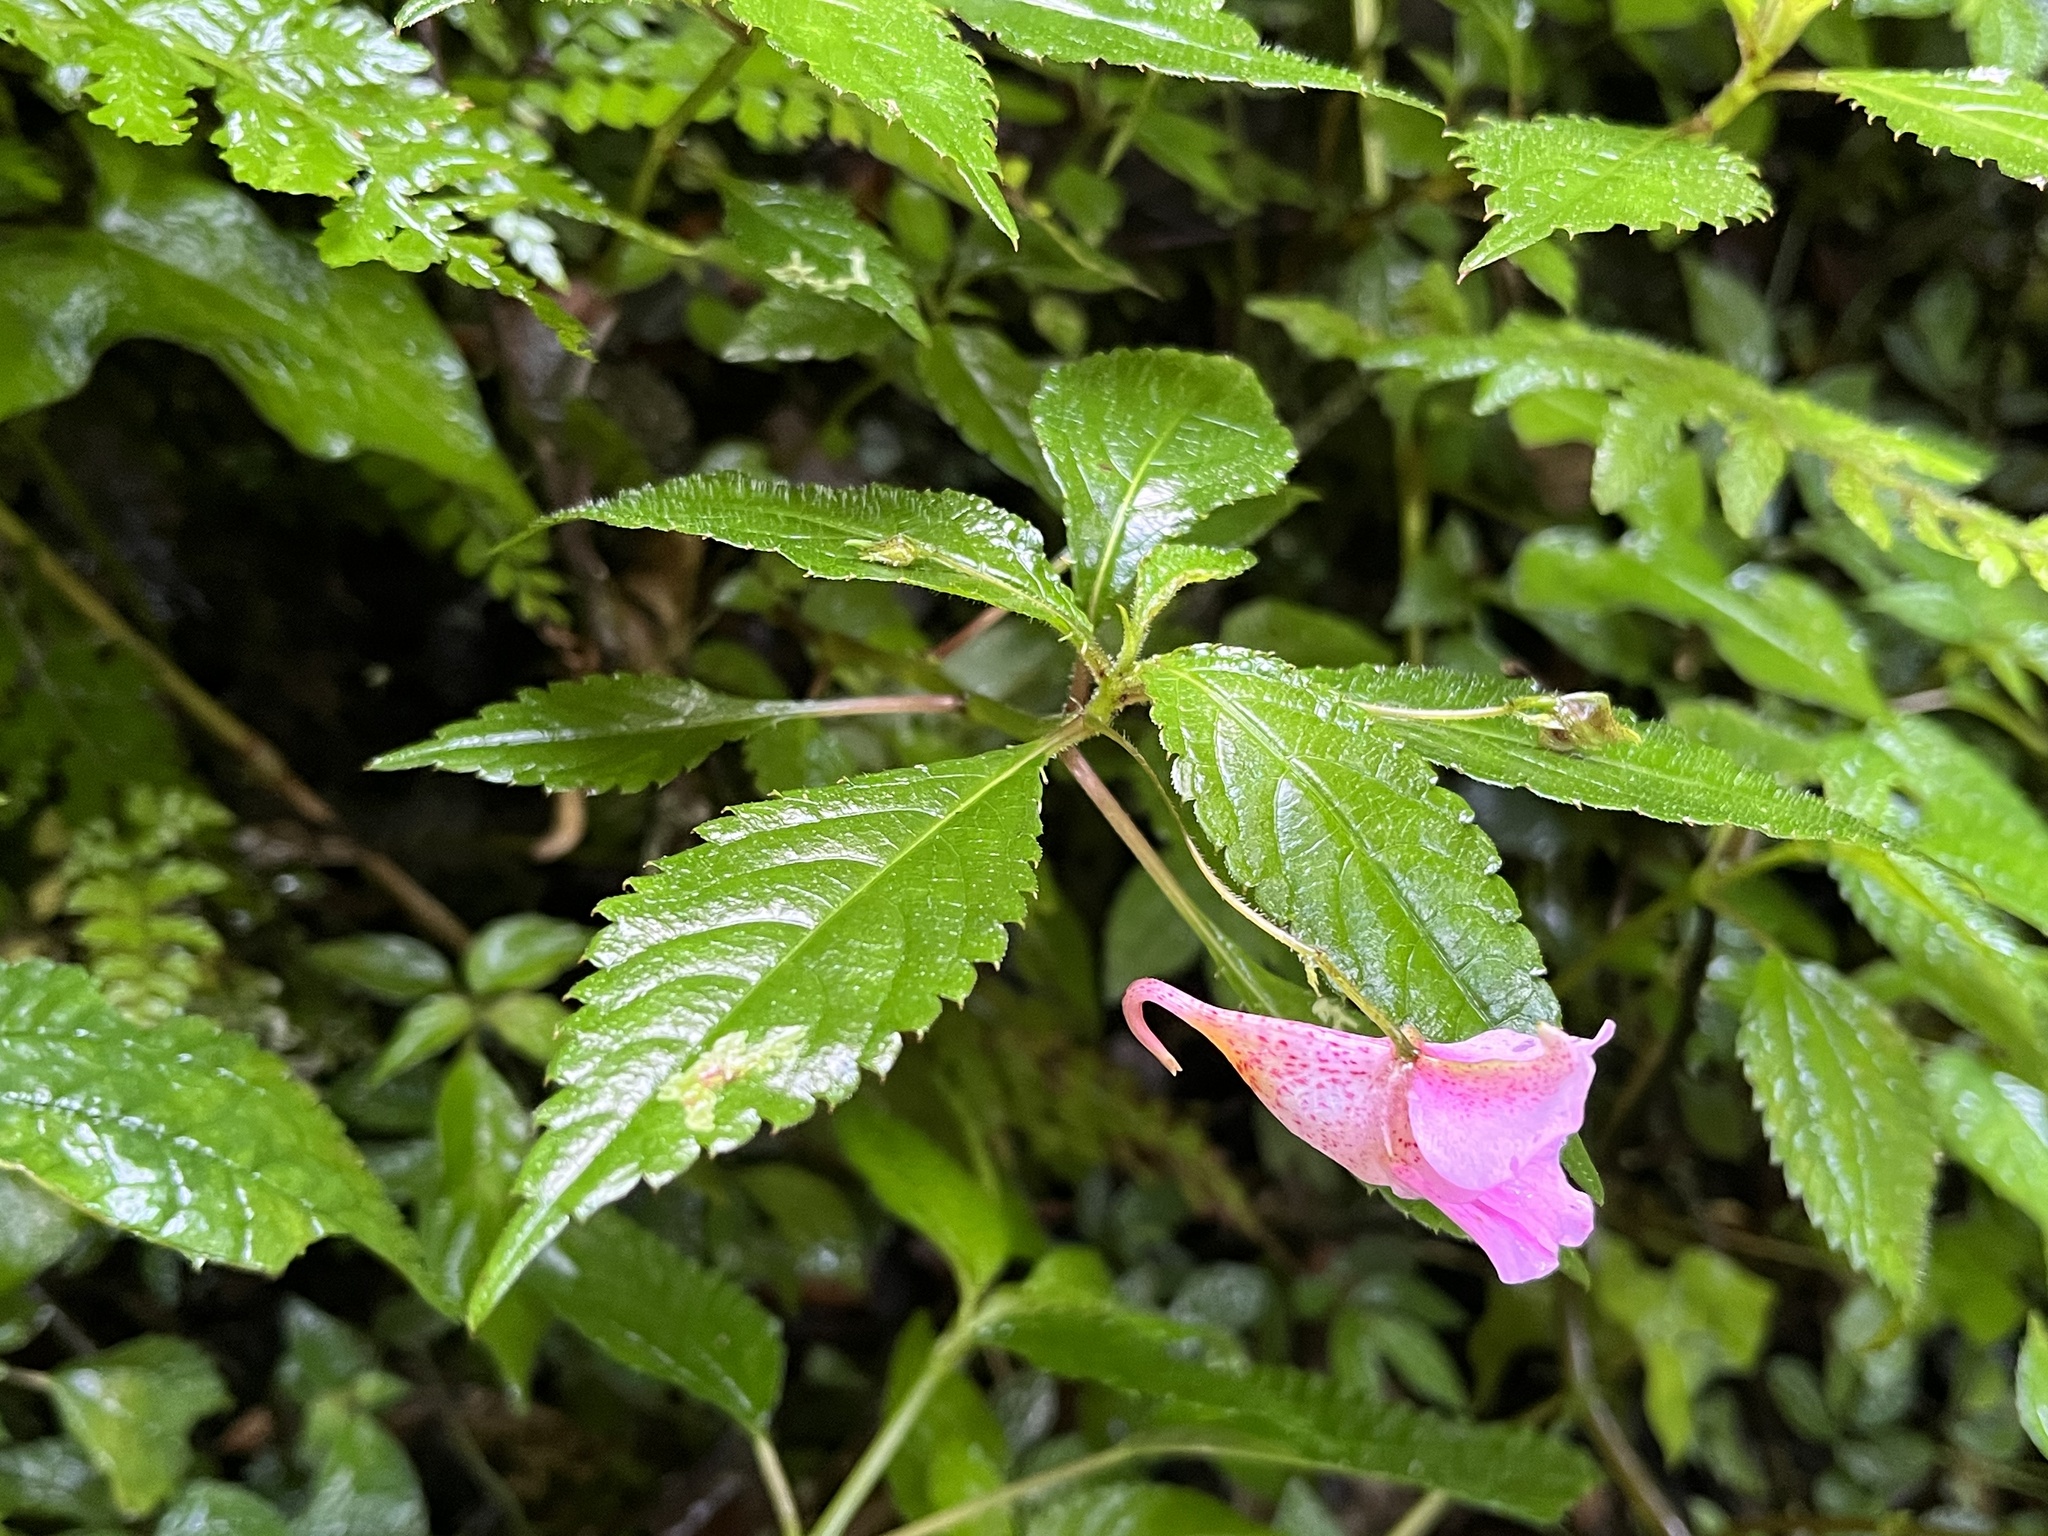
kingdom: Plantae
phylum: Tracheophyta
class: Magnoliopsida
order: Ericales
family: Balsaminaceae
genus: Impatiens
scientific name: Impatiens uniflora
